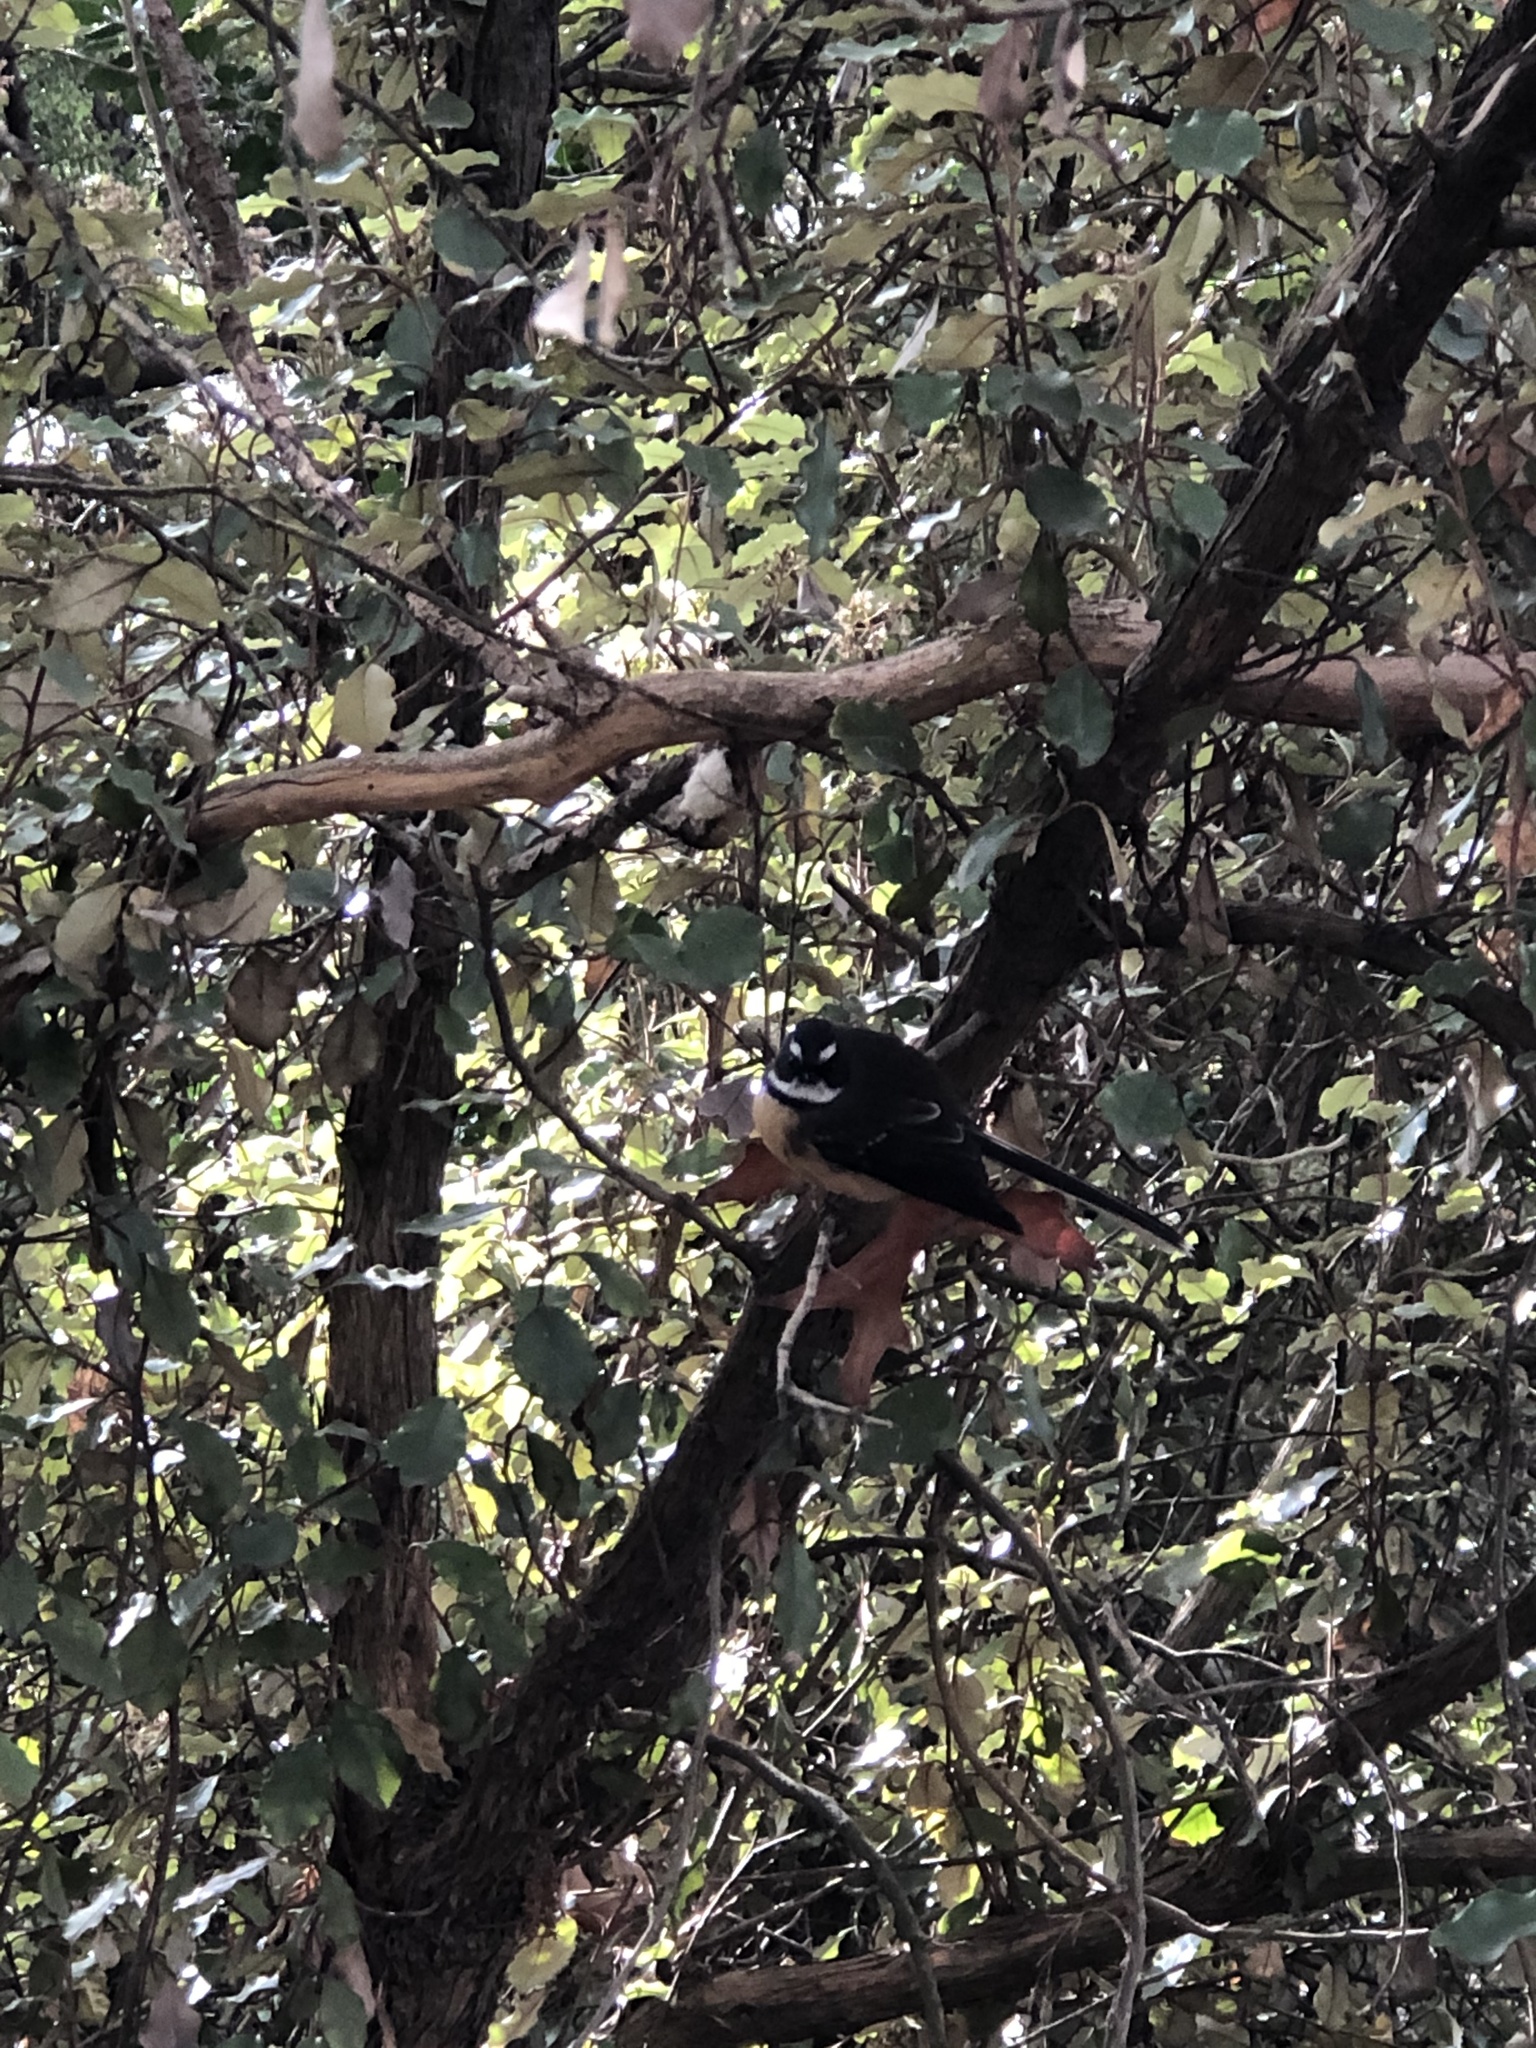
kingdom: Animalia
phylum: Chordata
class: Aves
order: Passeriformes
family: Rhipiduridae
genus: Rhipidura
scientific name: Rhipidura fuliginosa
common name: New zealand fantail
